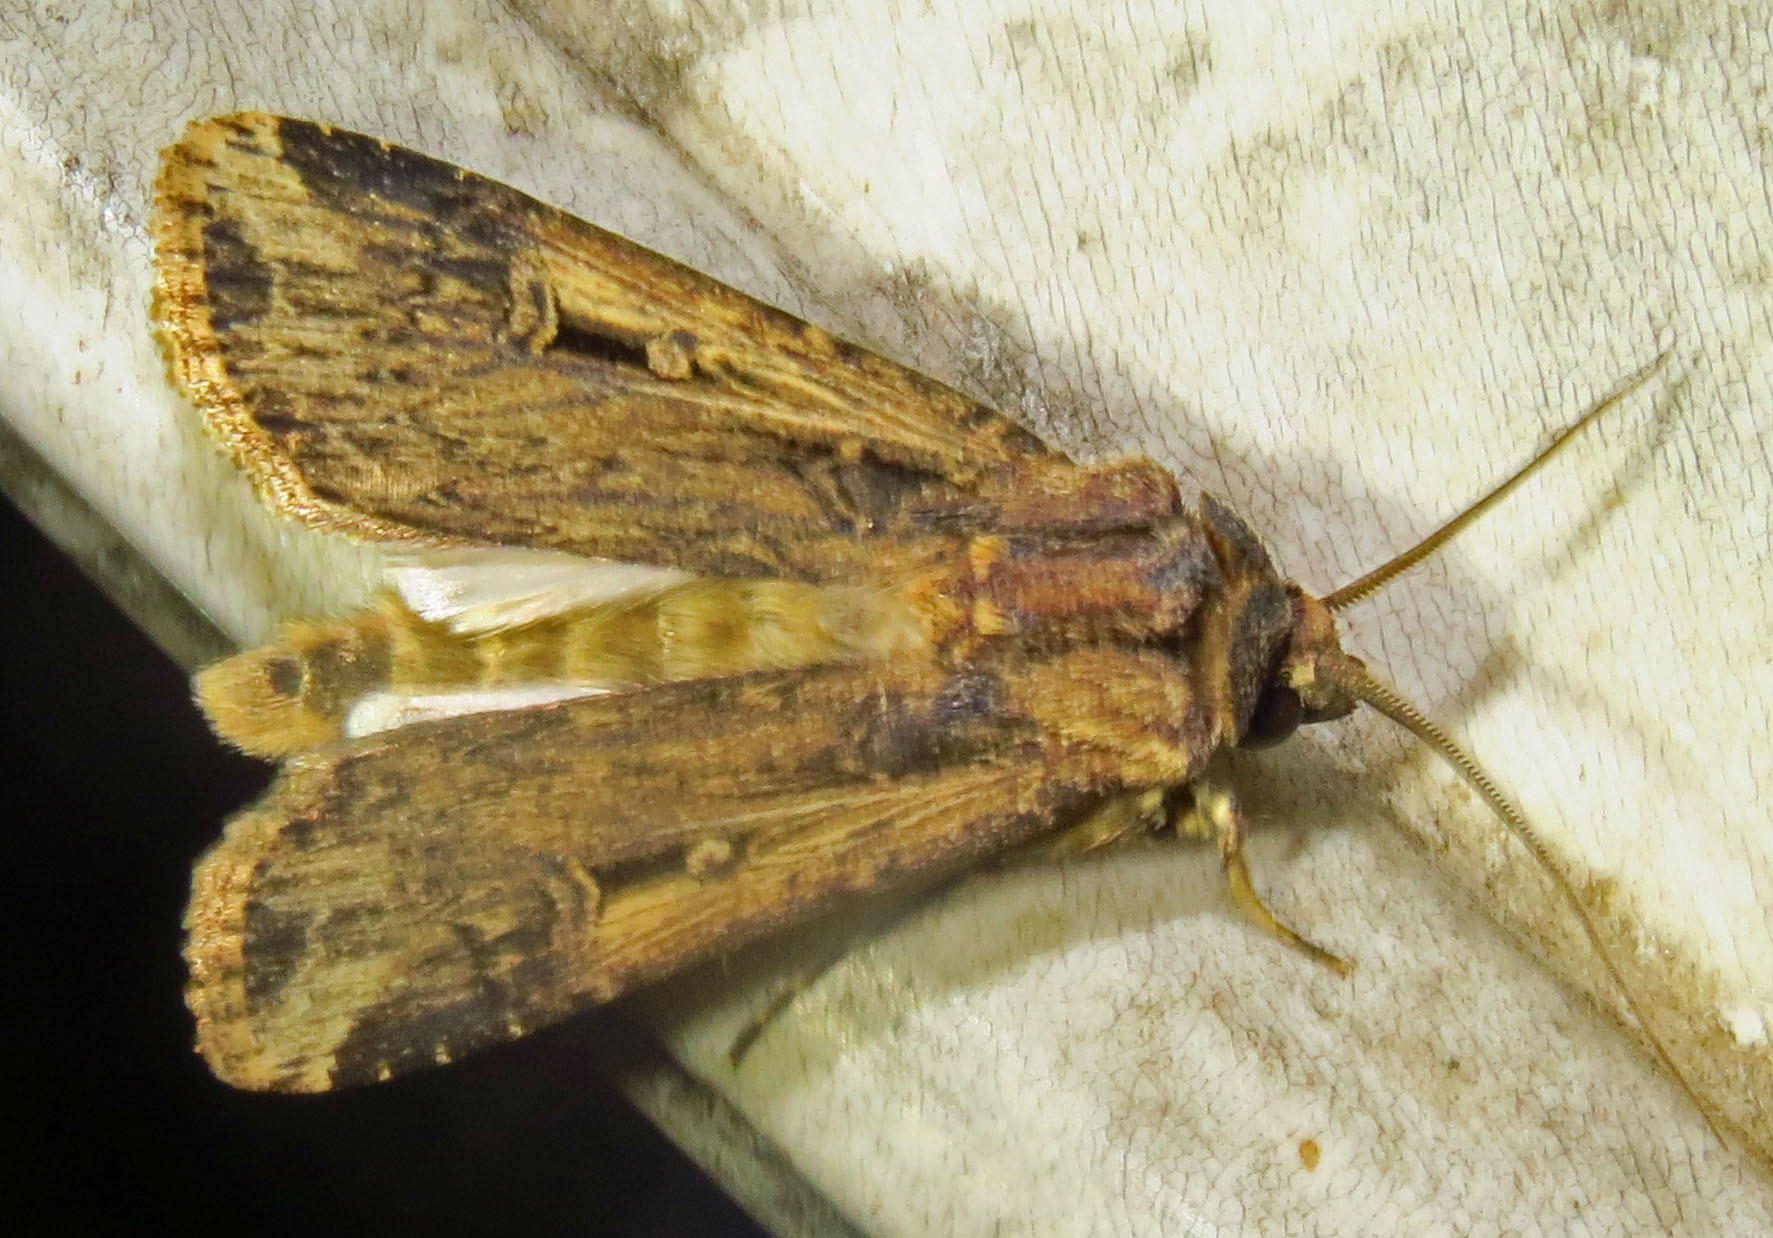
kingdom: Animalia
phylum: Arthropoda
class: Insecta
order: Lepidoptera
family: Noctuidae
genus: Feltia
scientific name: Feltia subterranea
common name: Granulate cutworm
